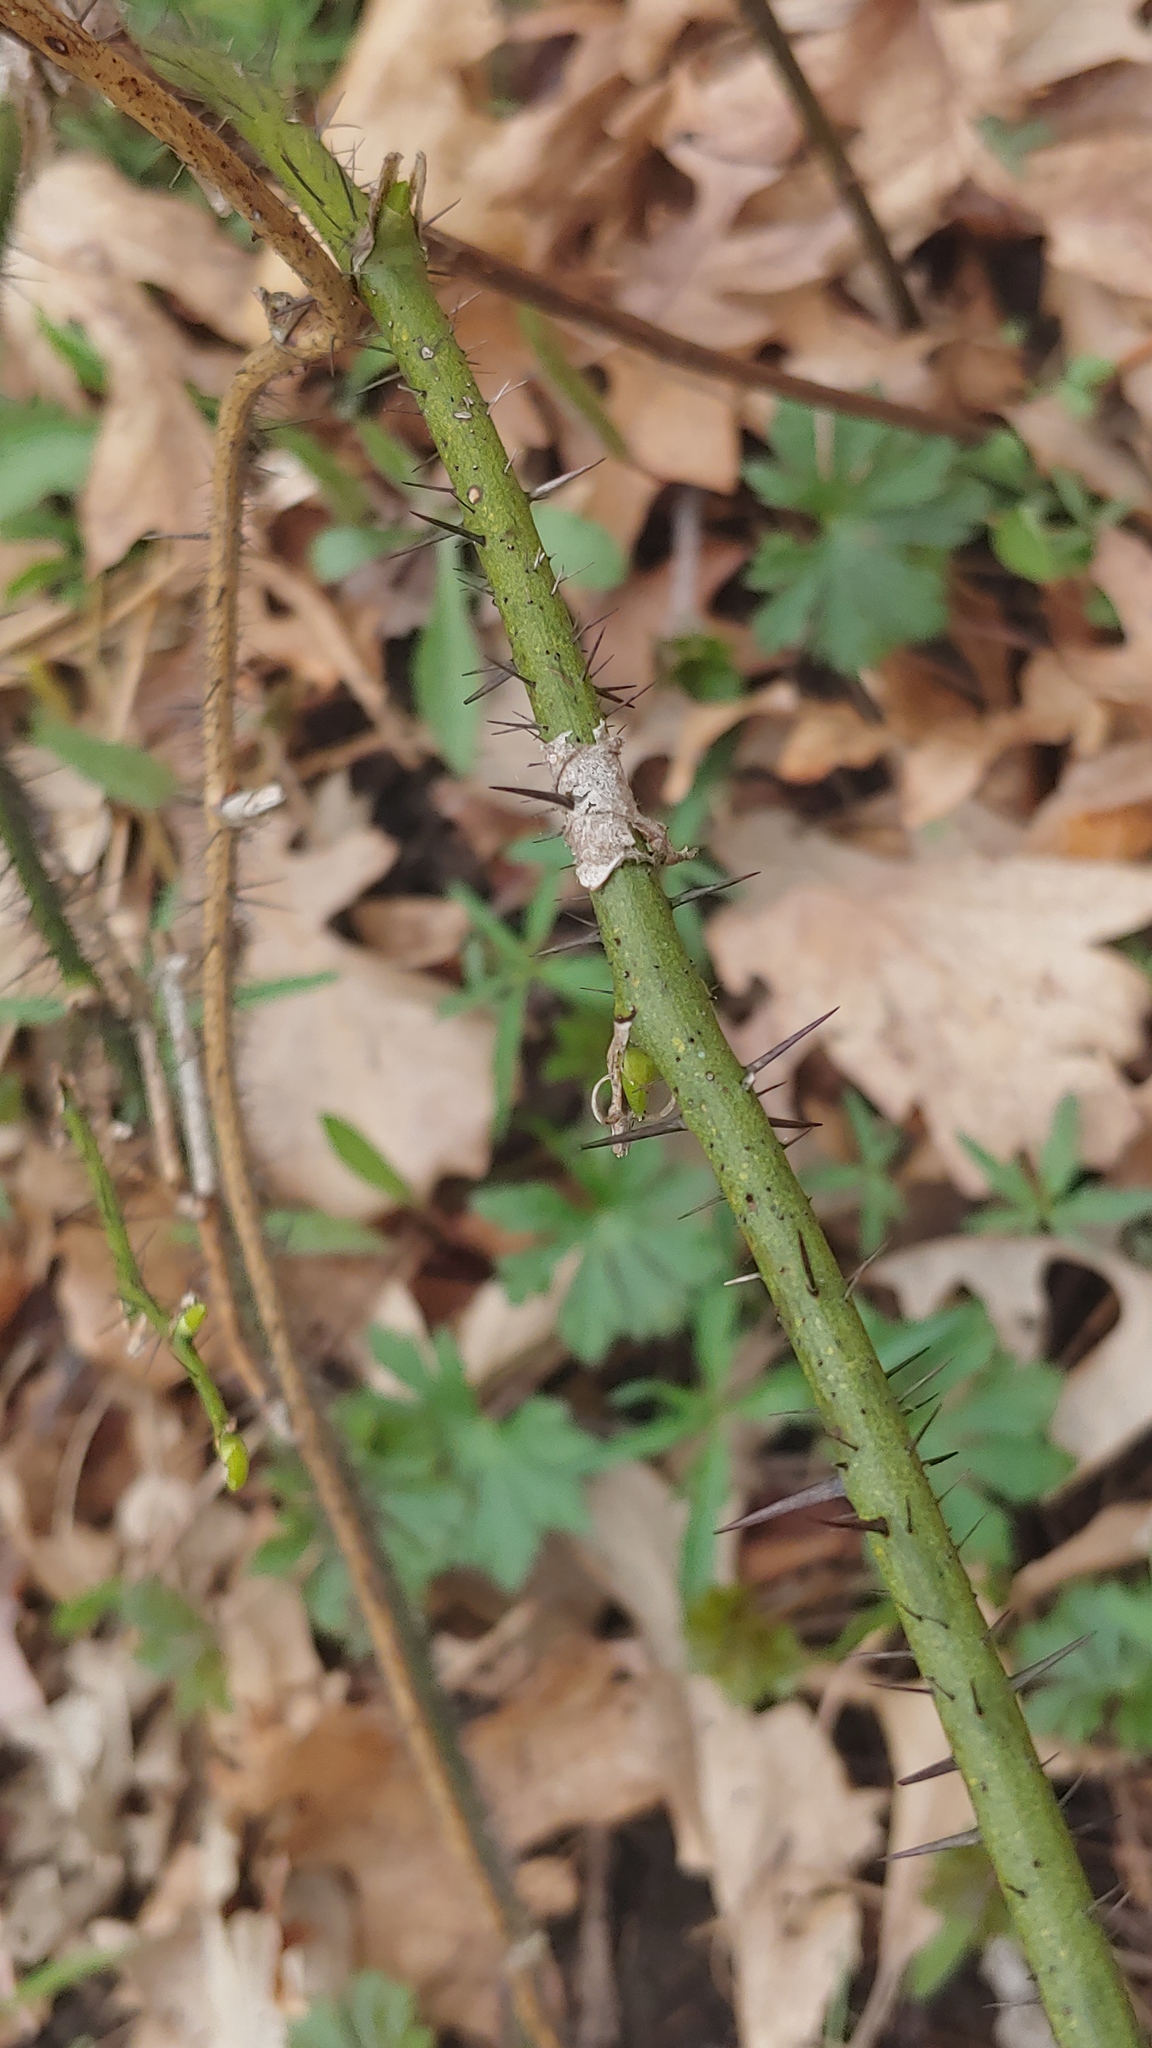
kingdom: Plantae
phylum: Tracheophyta
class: Liliopsida
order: Liliales
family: Smilacaceae
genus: Smilax
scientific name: Smilax tamnoides
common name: Hellfetter
